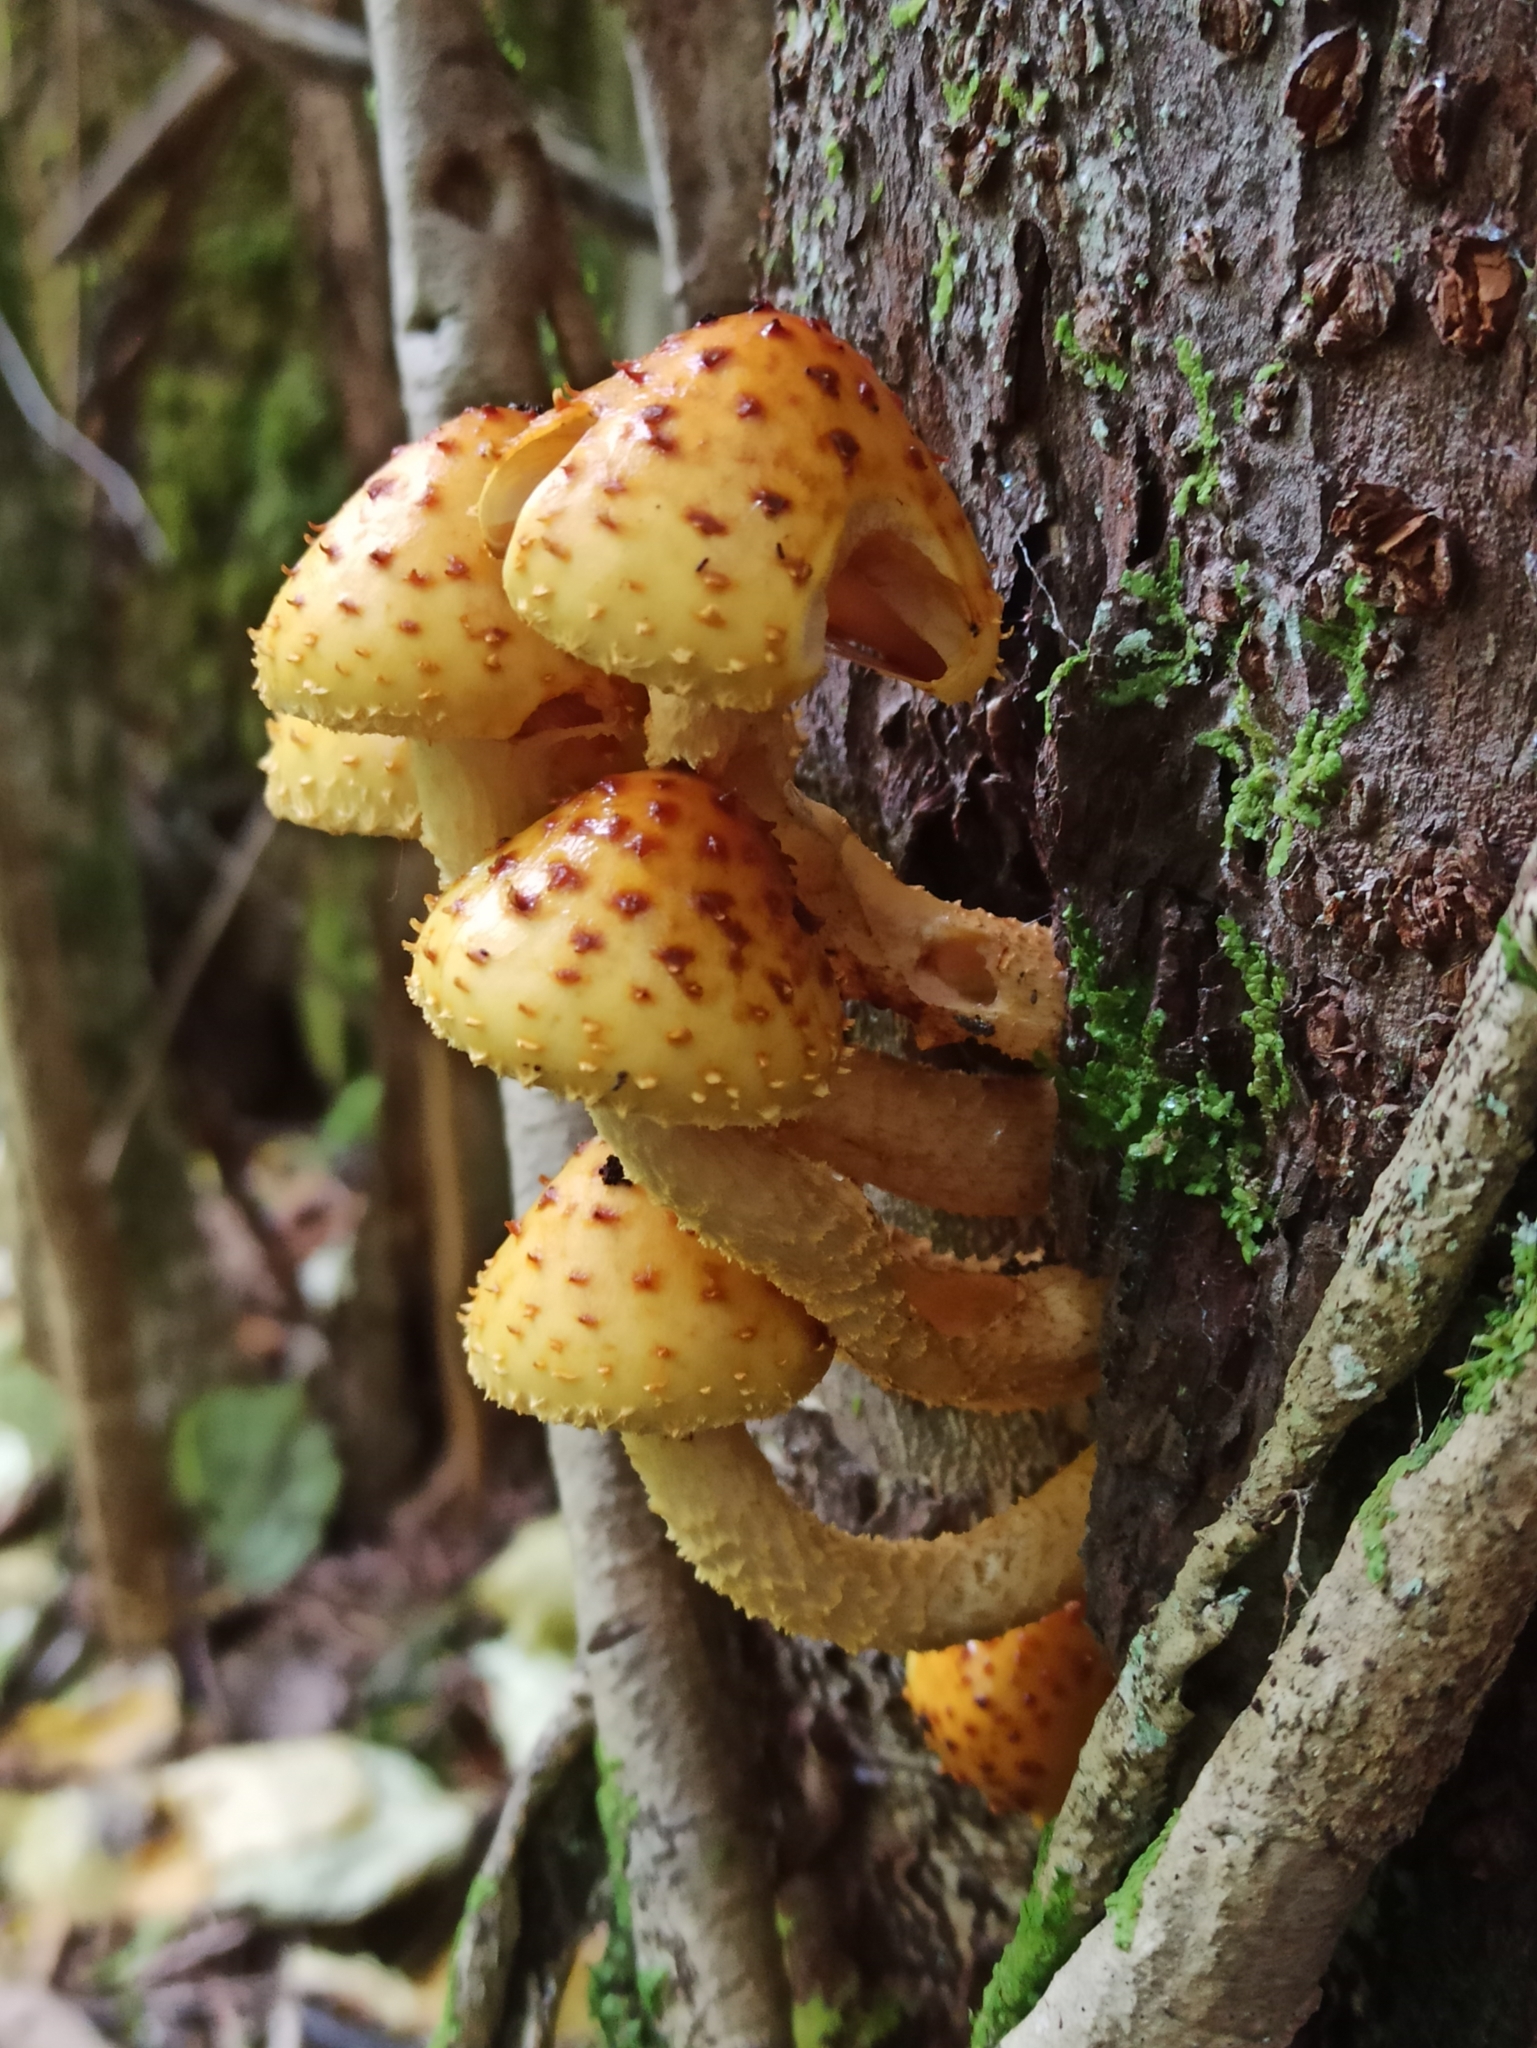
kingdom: Fungi
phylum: Basidiomycota
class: Agaricomycetes
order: Agaricales
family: Strophariaceae
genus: Pholiota
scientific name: Pholiota aurivella
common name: Golden scalycap
